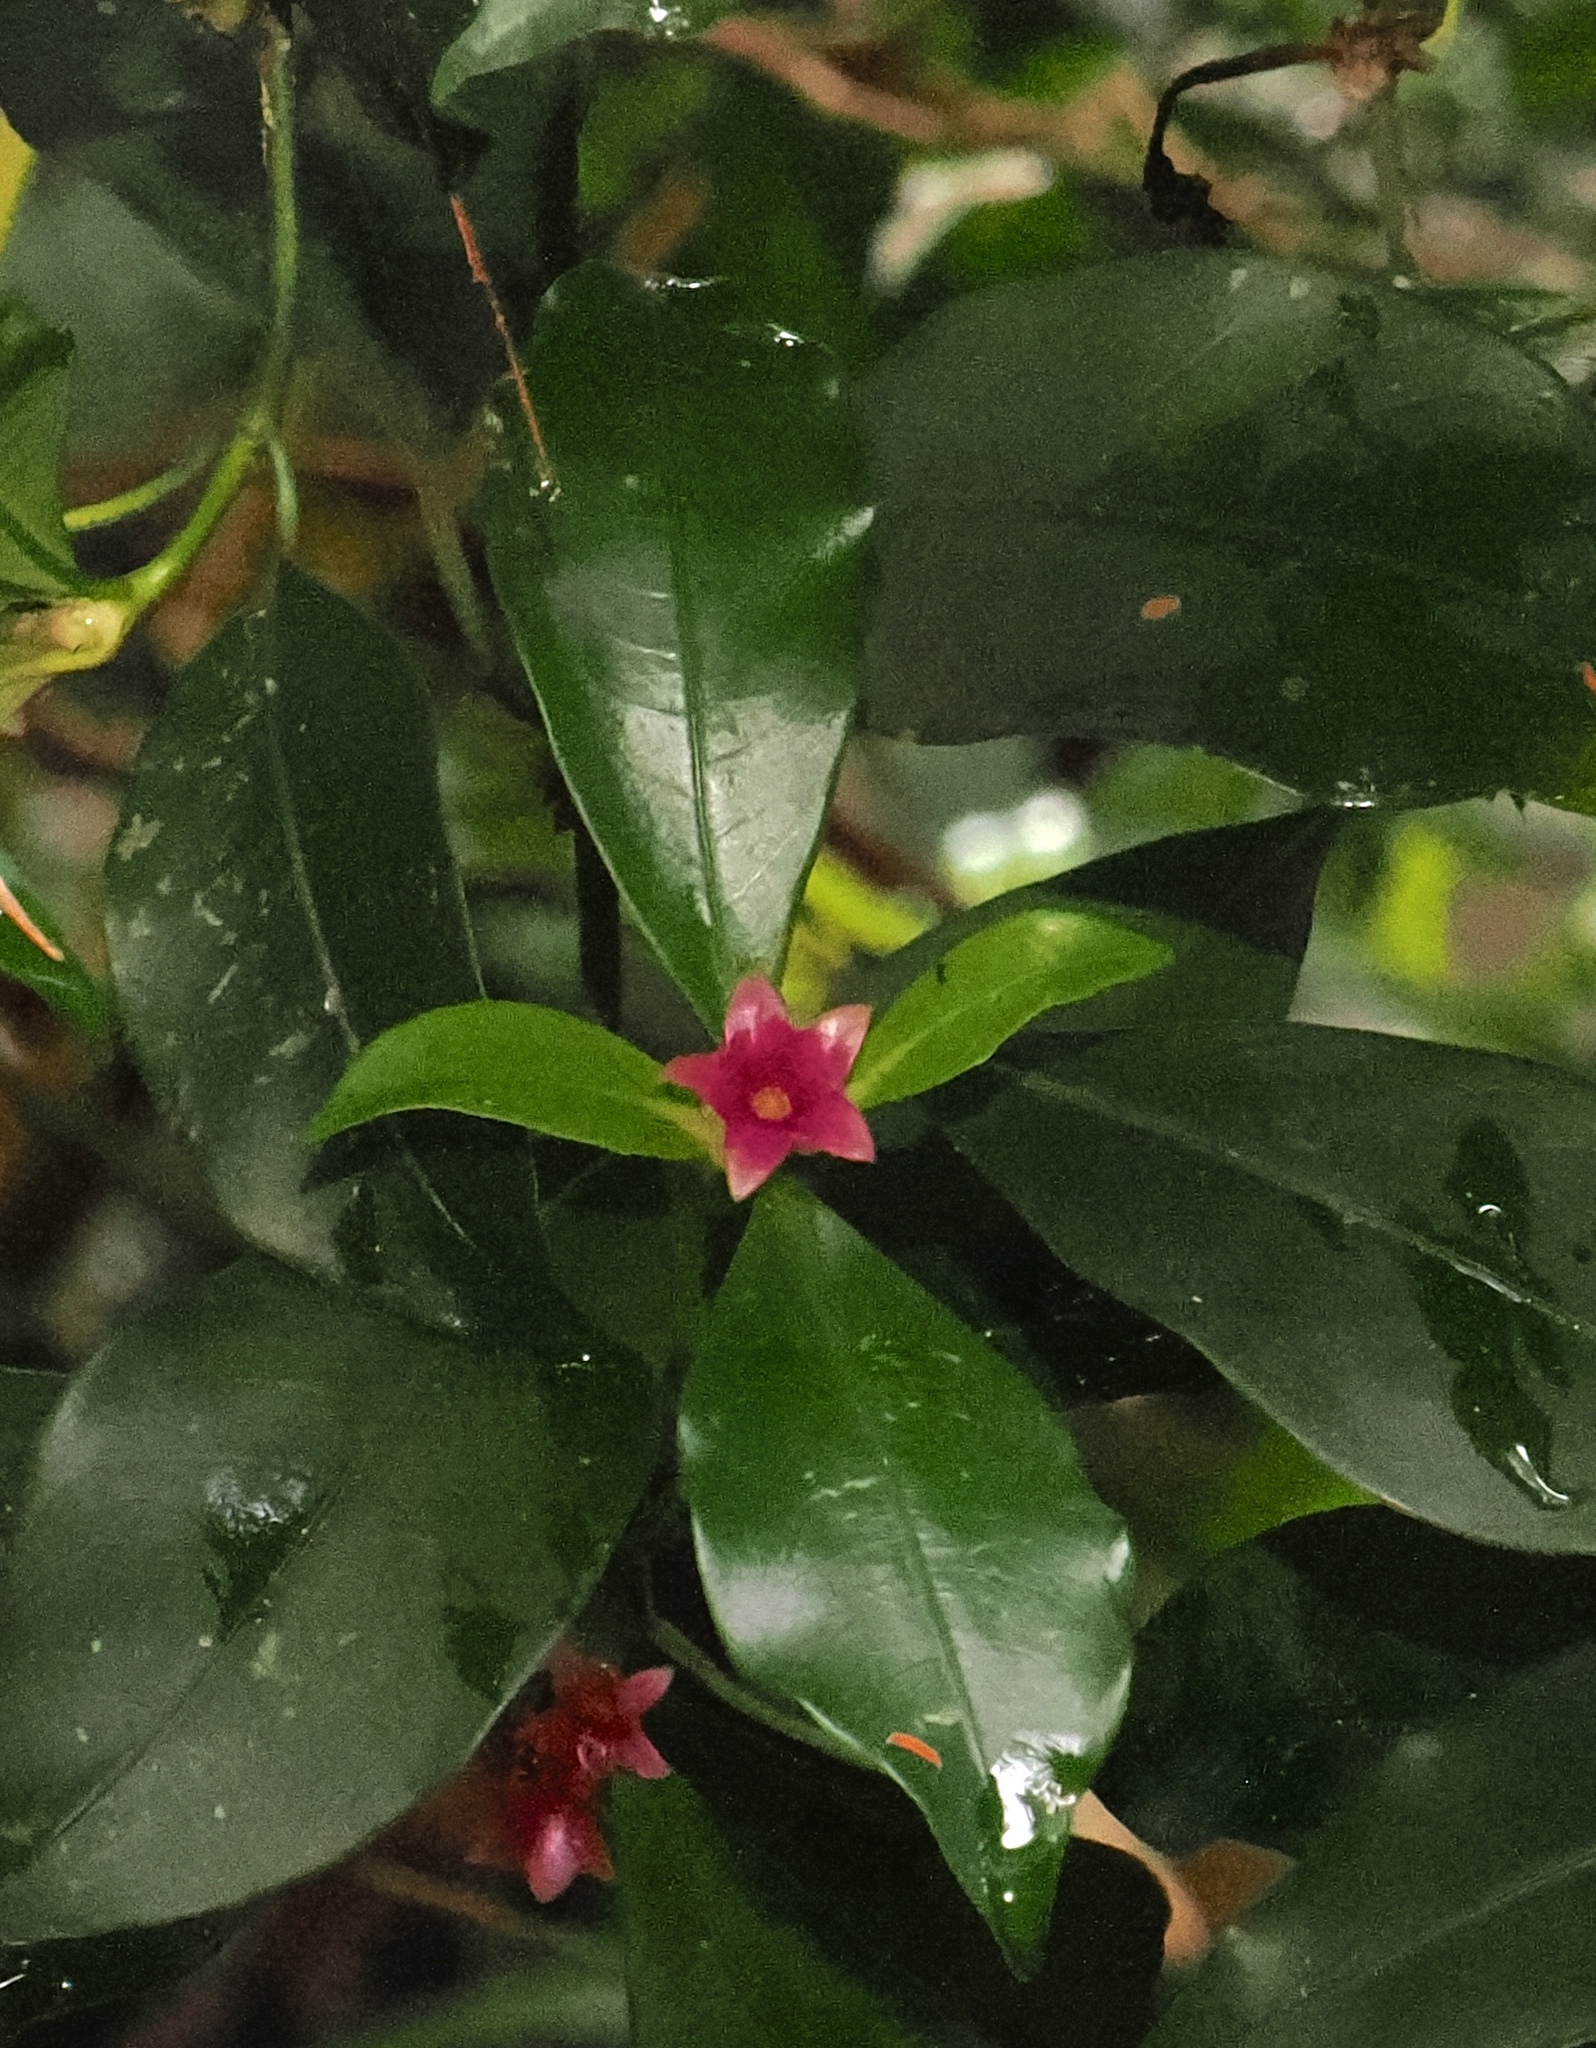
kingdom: Plantae
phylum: Tracheophyta
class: Magnoliopsida
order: Gentianales
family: Rubiaceae
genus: Psychotria
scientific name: Psychotria nuda
